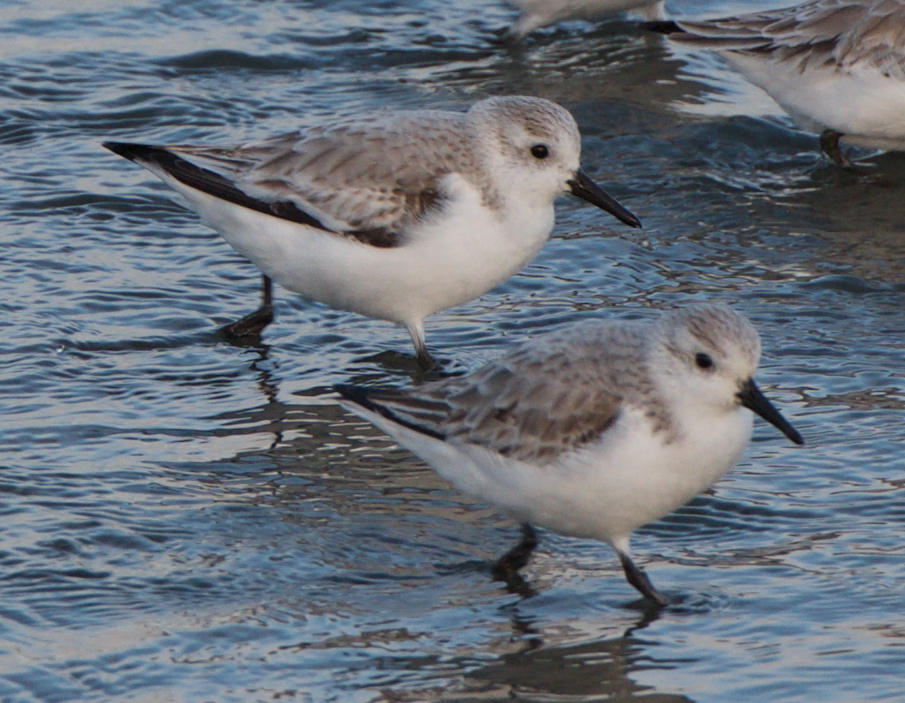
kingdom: Animalia
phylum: Chordata
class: Aves
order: Charadriiformes
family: Scolopacidae
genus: Calidris
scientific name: Calidris alba
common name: Sanderling
